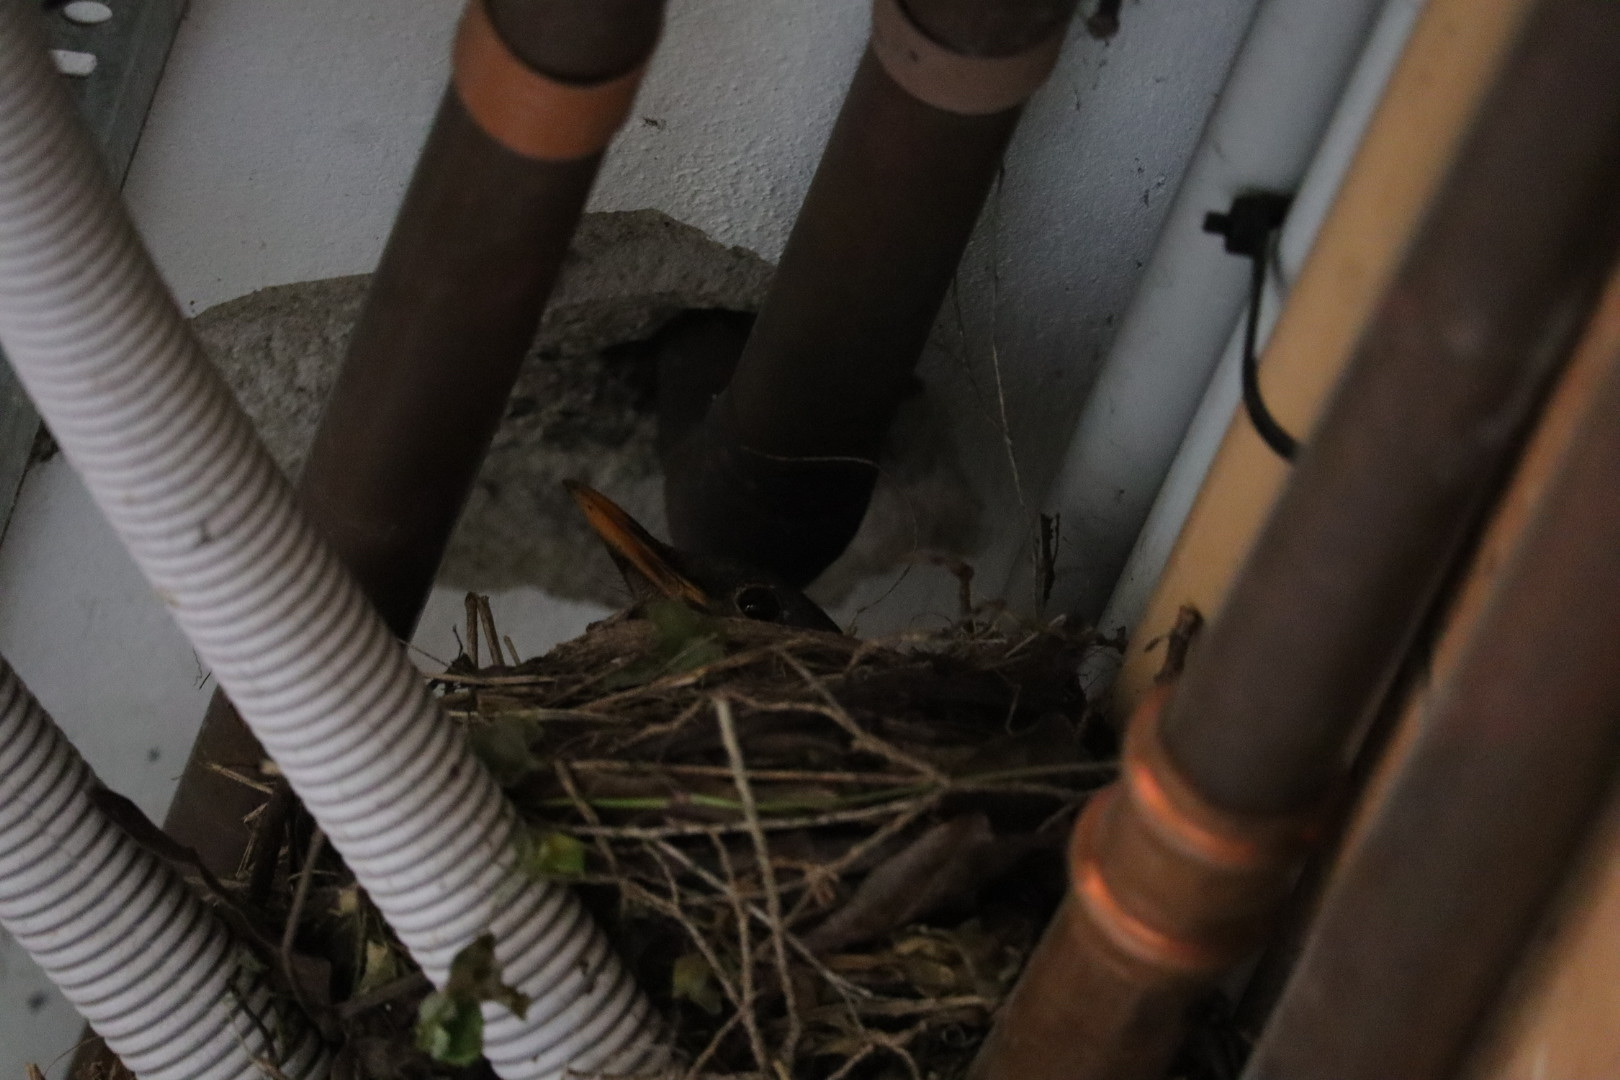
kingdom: Animalia
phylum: Chordata
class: Aves
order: Passeriformes
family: Turdidae
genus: Turdus
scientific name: Turdus merula
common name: Common blackbird
